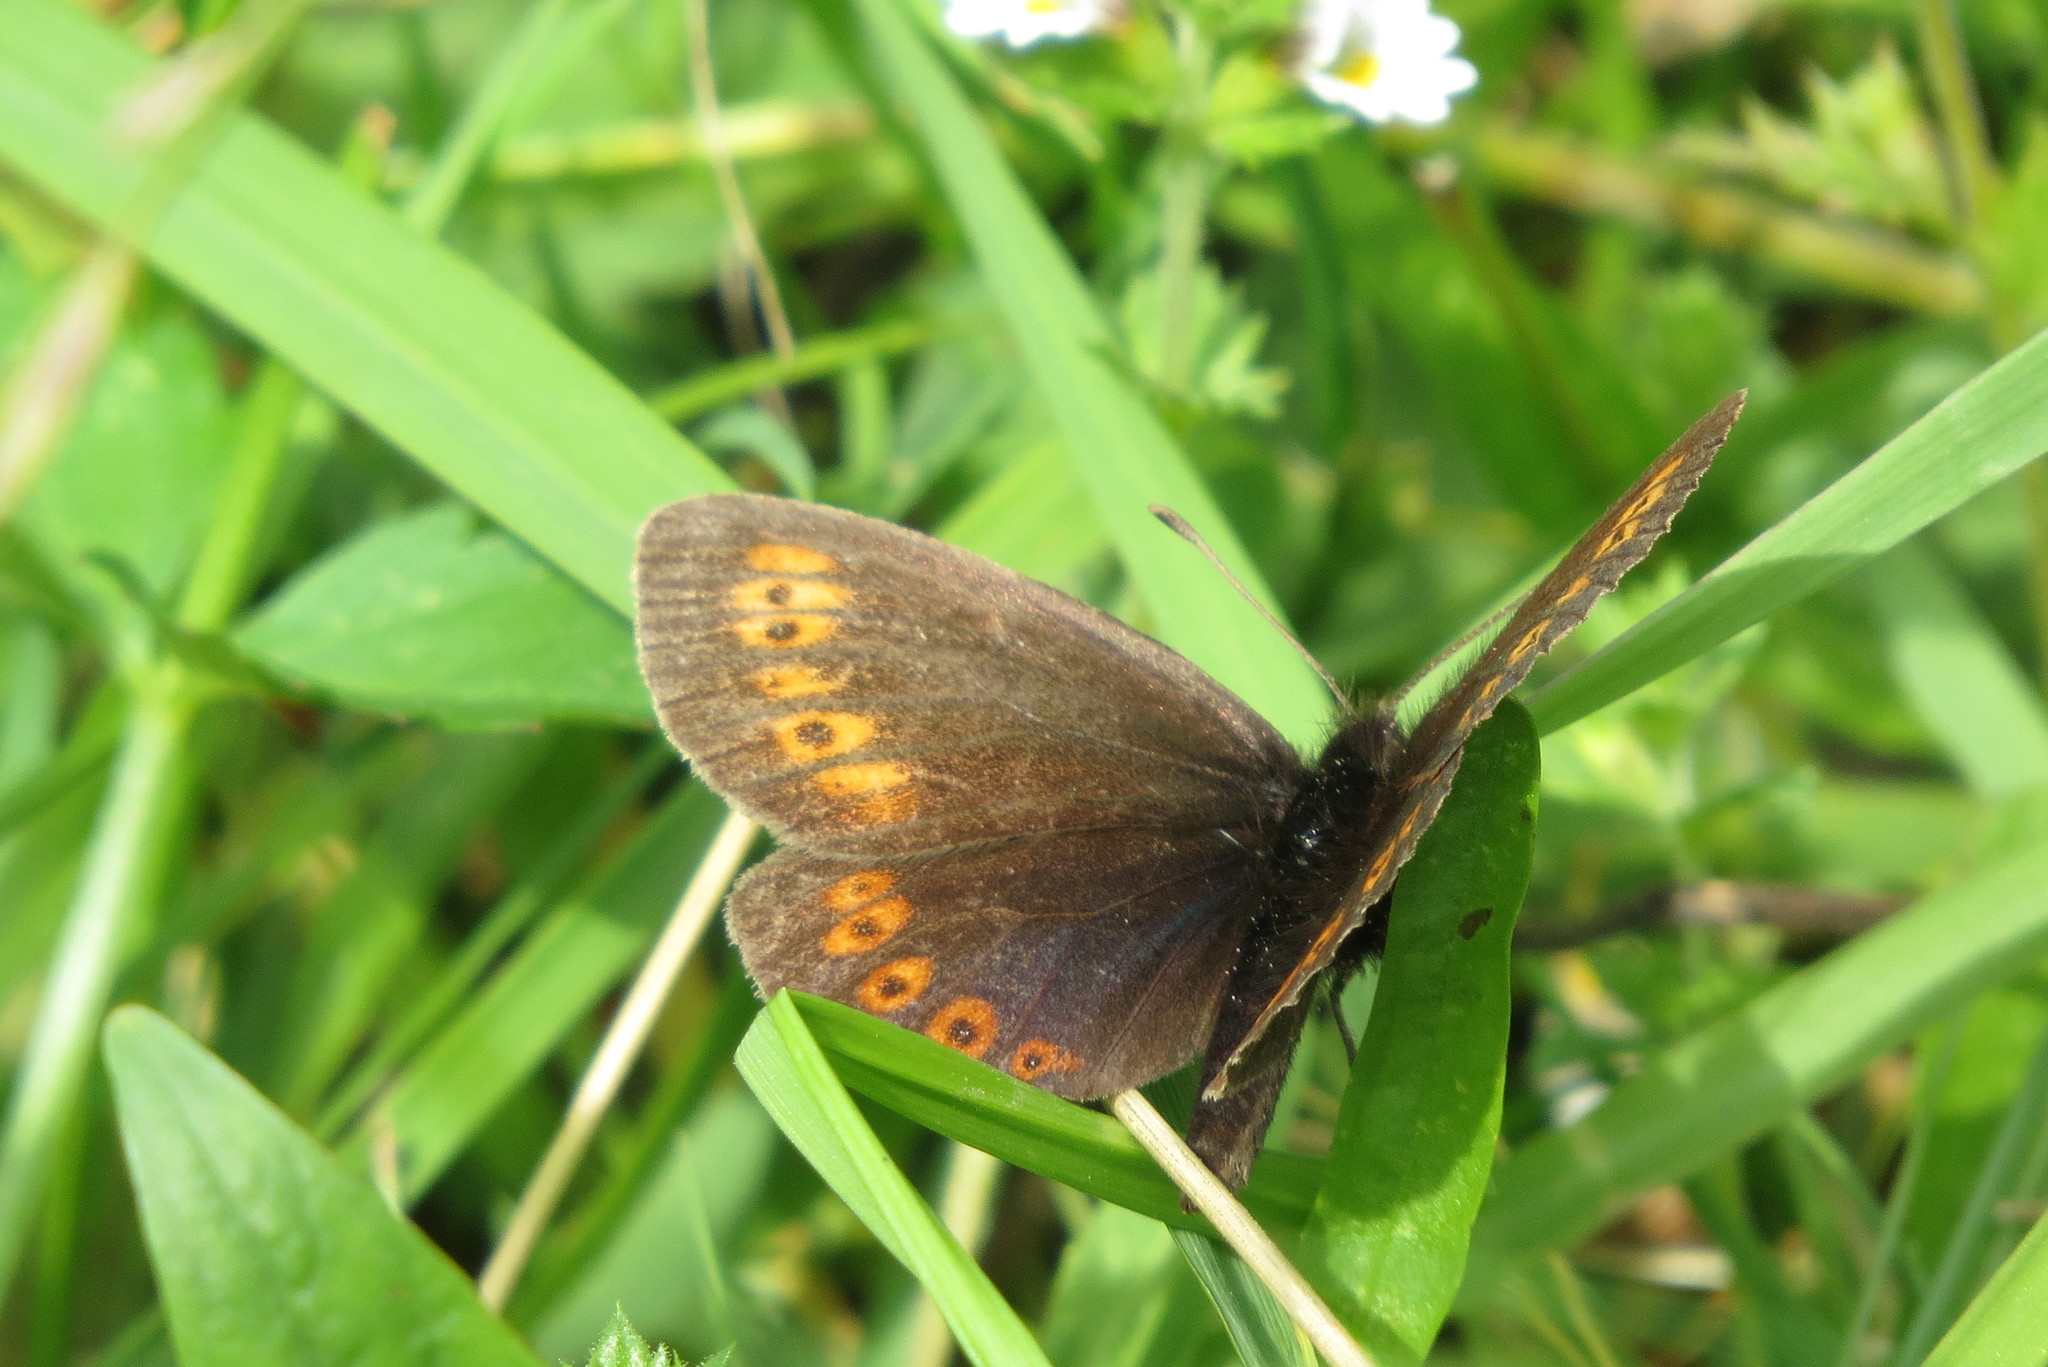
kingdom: Animalia
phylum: Arthropoda
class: Insecta
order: Lepidoptera
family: Nymphalidae
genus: Erebia
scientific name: Erebia alberganus
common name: Almond-eyed ringlet
